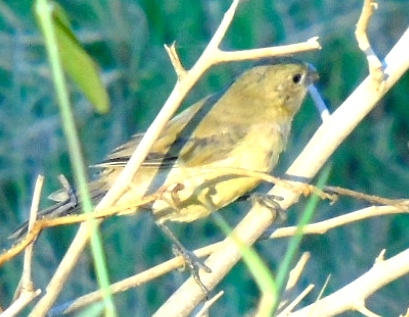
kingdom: Animalia
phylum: Chordata
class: Aves
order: Passeriformes
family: Thraupidae
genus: Sporophila
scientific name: Sporophila torqueola
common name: White-collared seedeater
